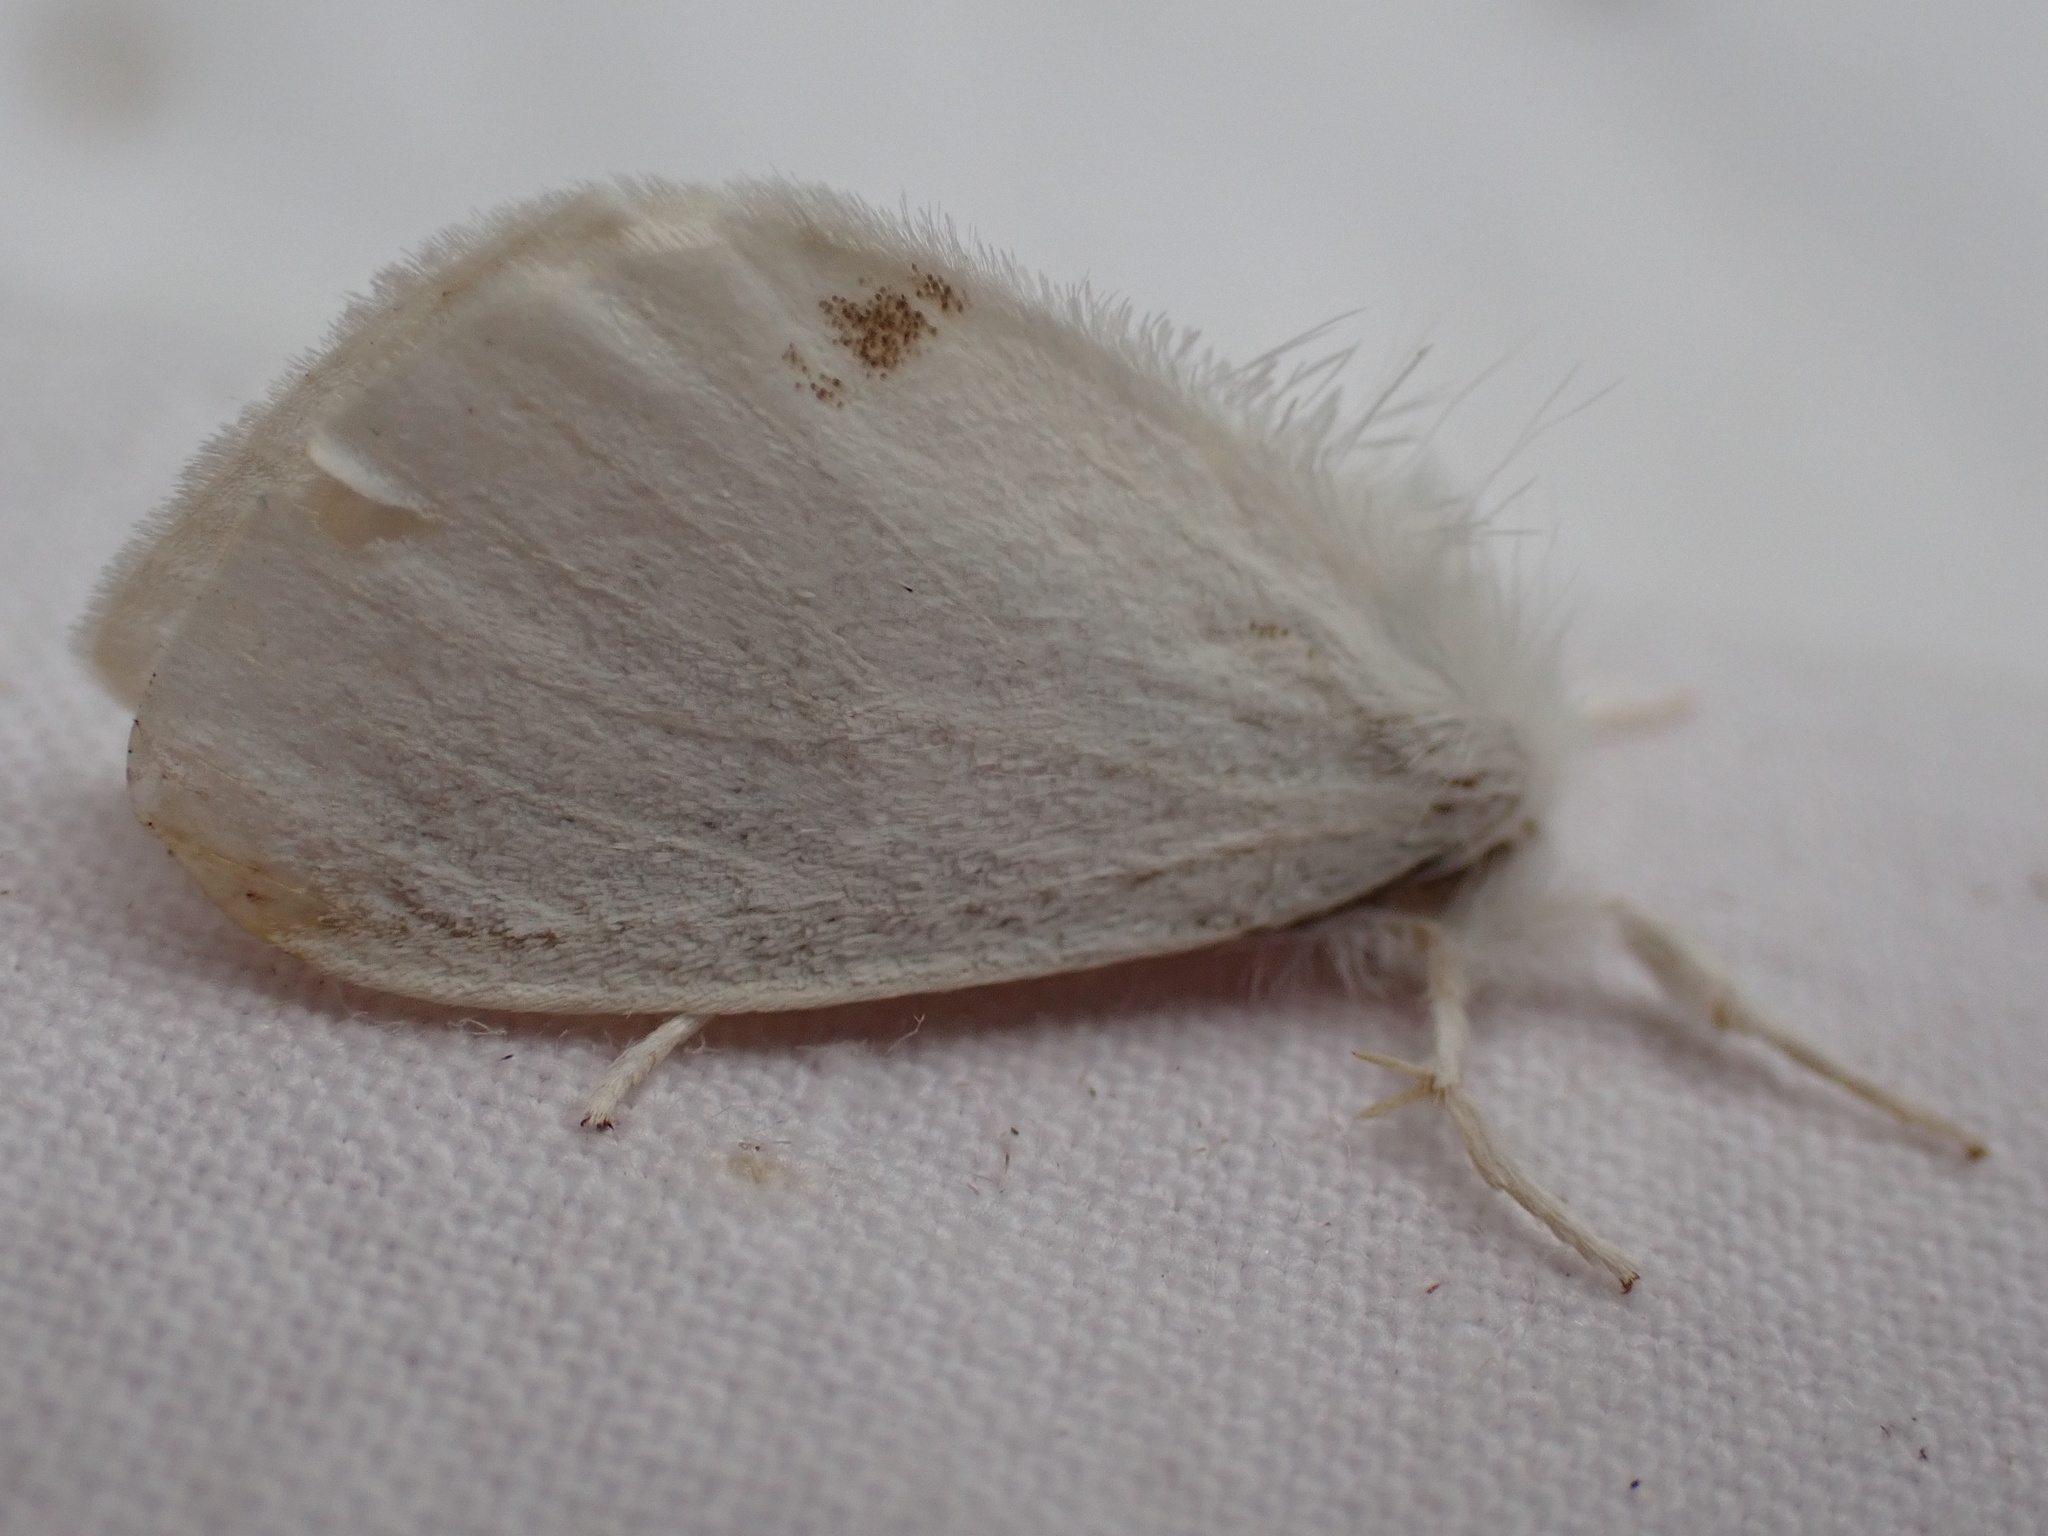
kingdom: Animalia
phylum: Arthropoda
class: Insecta
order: Lepidoptera
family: Erebidae
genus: Sphrageidus
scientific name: Sphrageidus similis
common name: Yellow-tail
